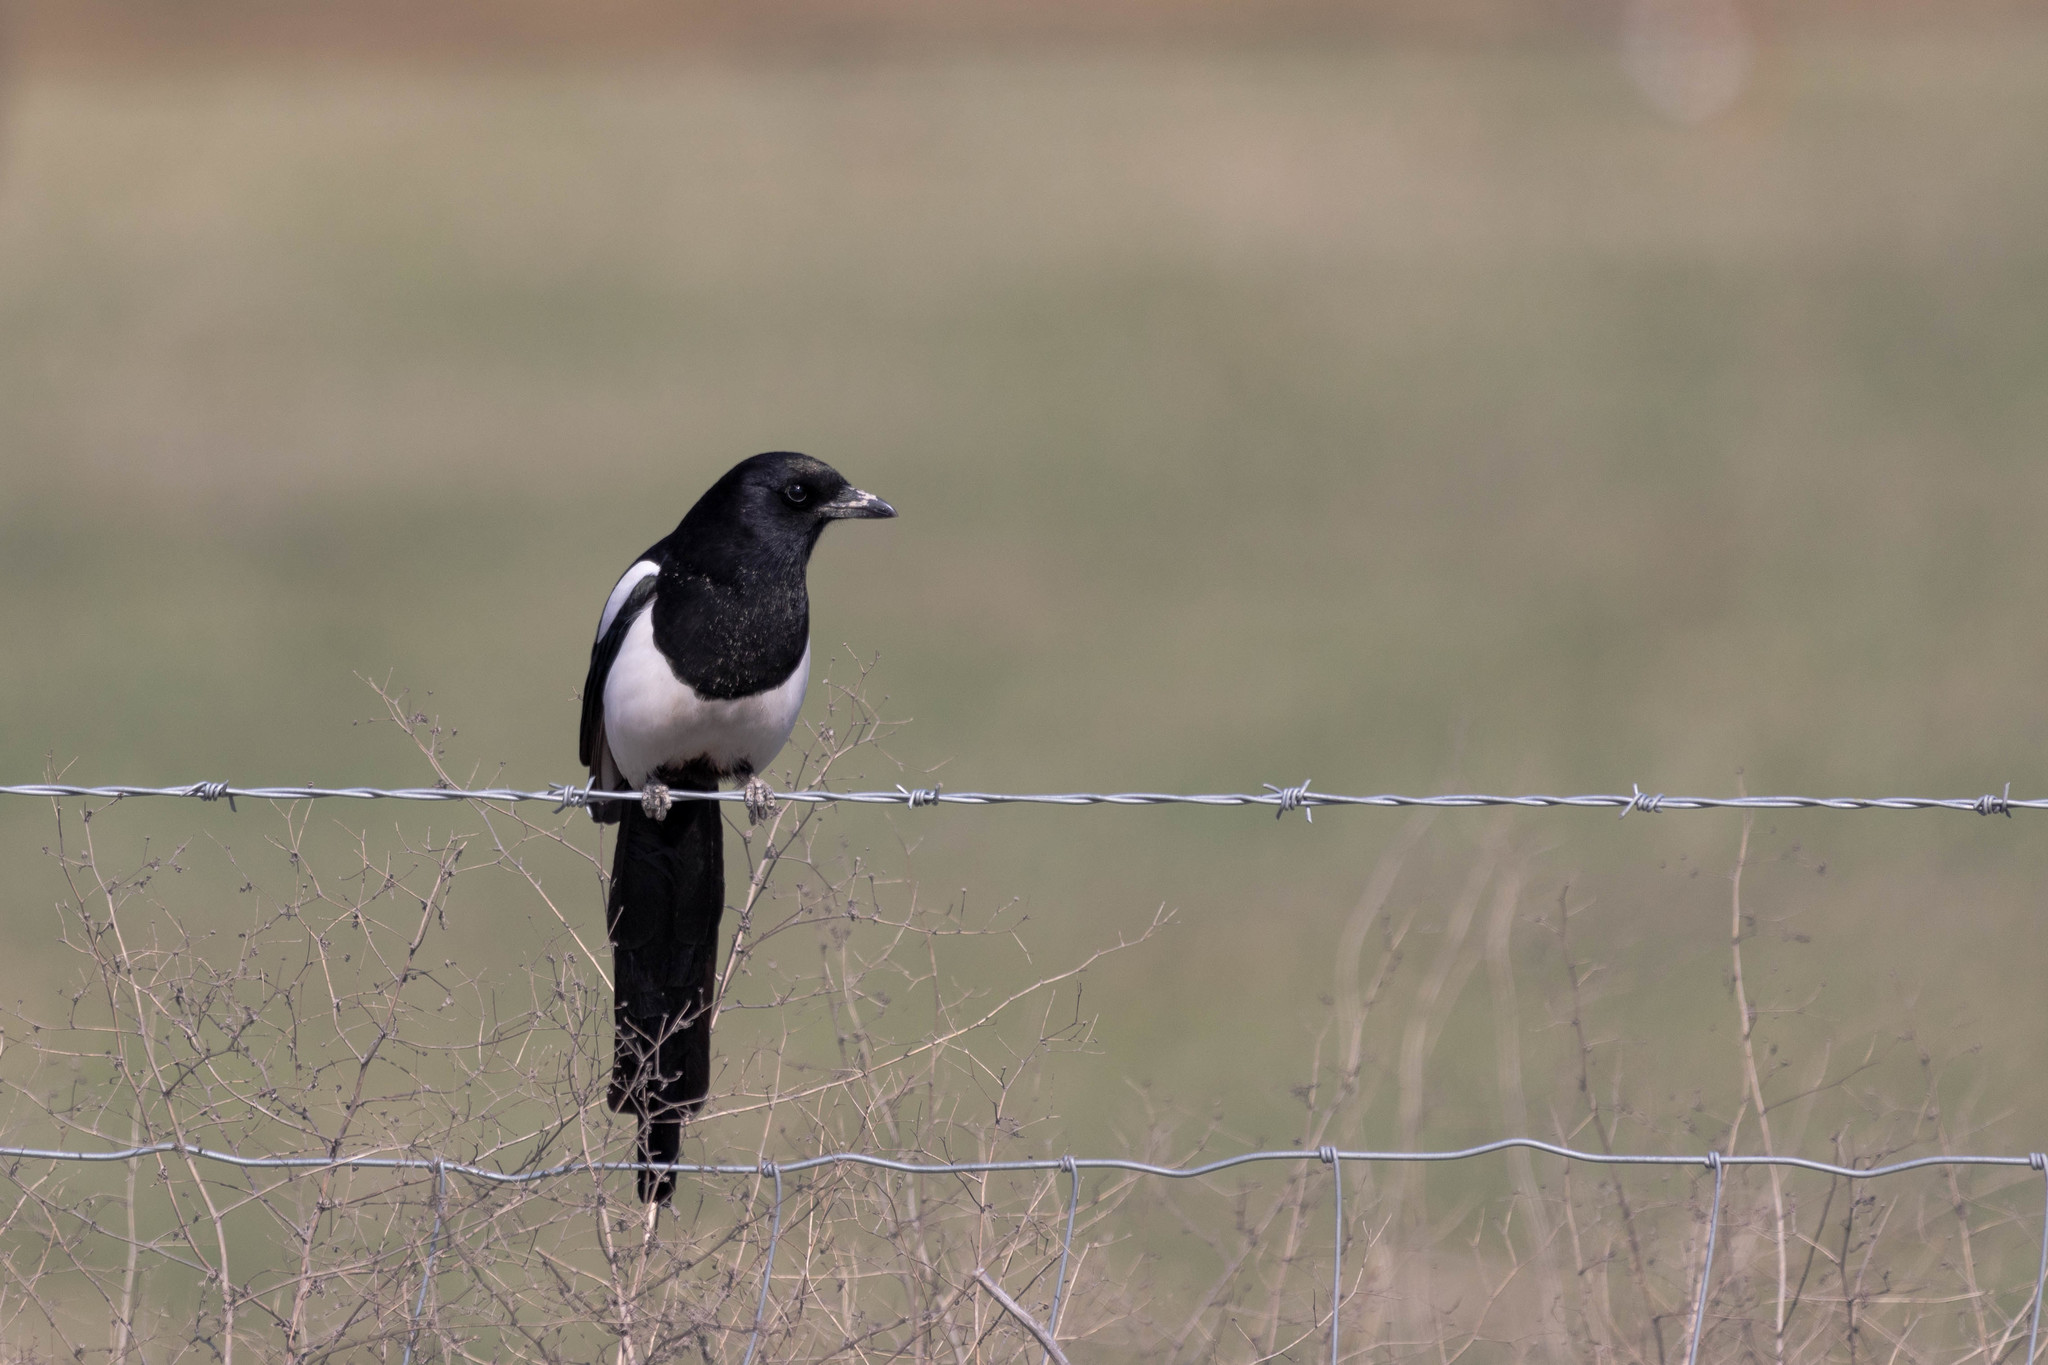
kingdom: Animalia
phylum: Chordata
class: Aves
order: Passeriformes
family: Corvidae
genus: Pica
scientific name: Pica hudsonia
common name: Black-billed magpie
